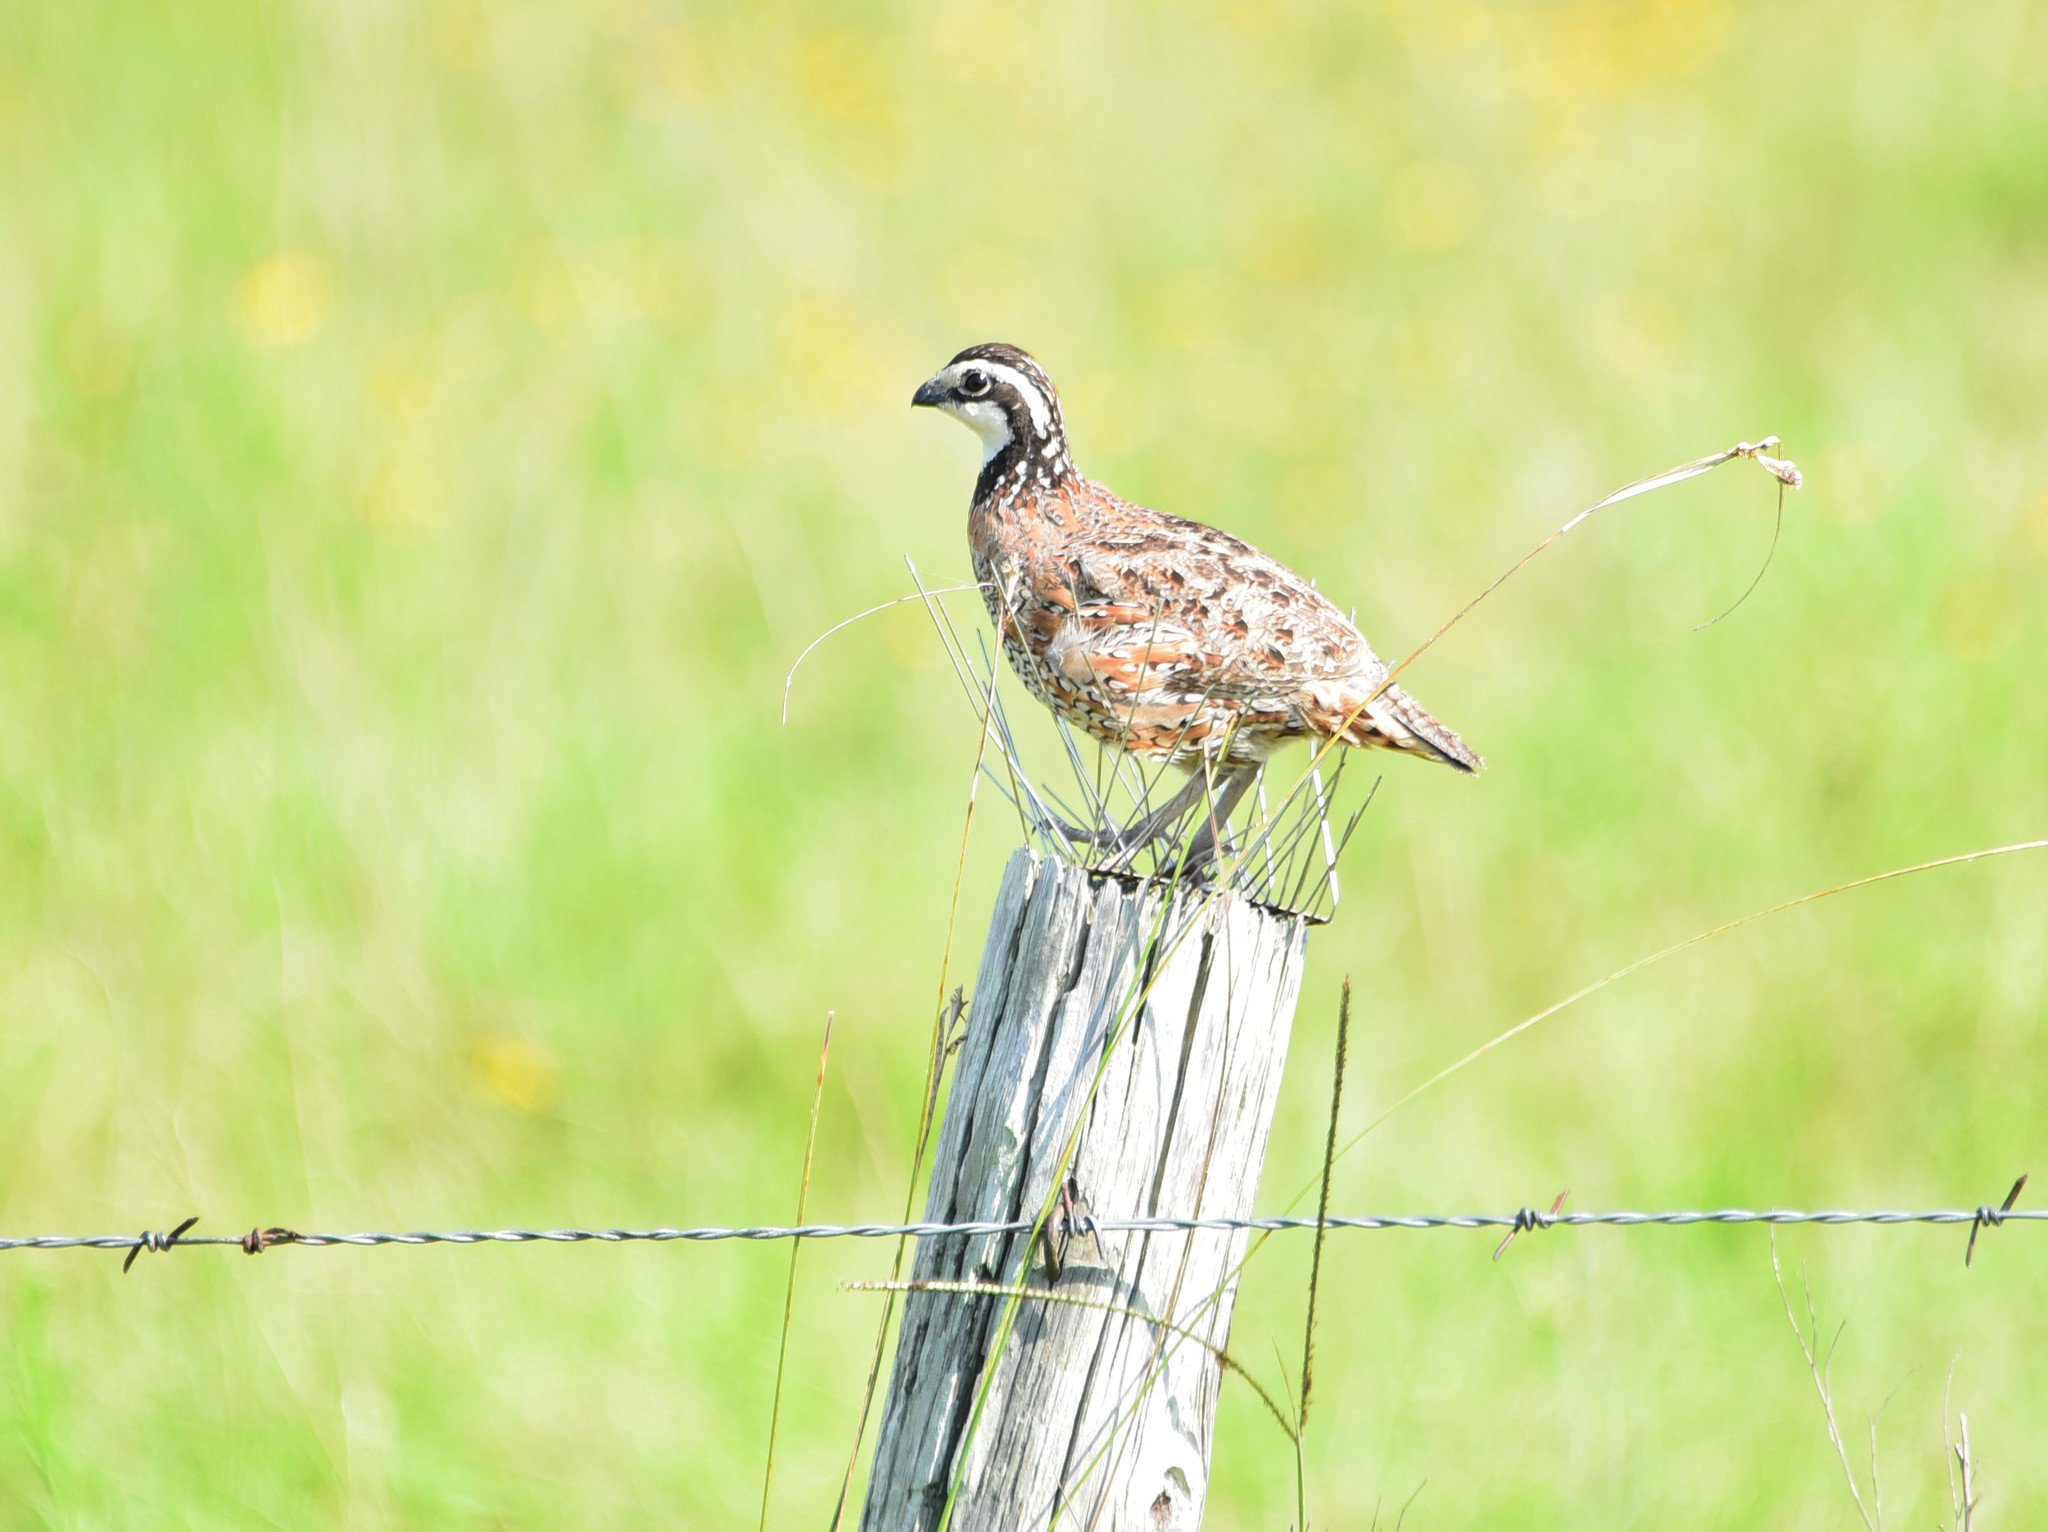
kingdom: Animalia
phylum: Chordata
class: Aves
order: Galliformes
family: Odontophoridae
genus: Colinus
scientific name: Colinus virginianus
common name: Northern bobwhite
